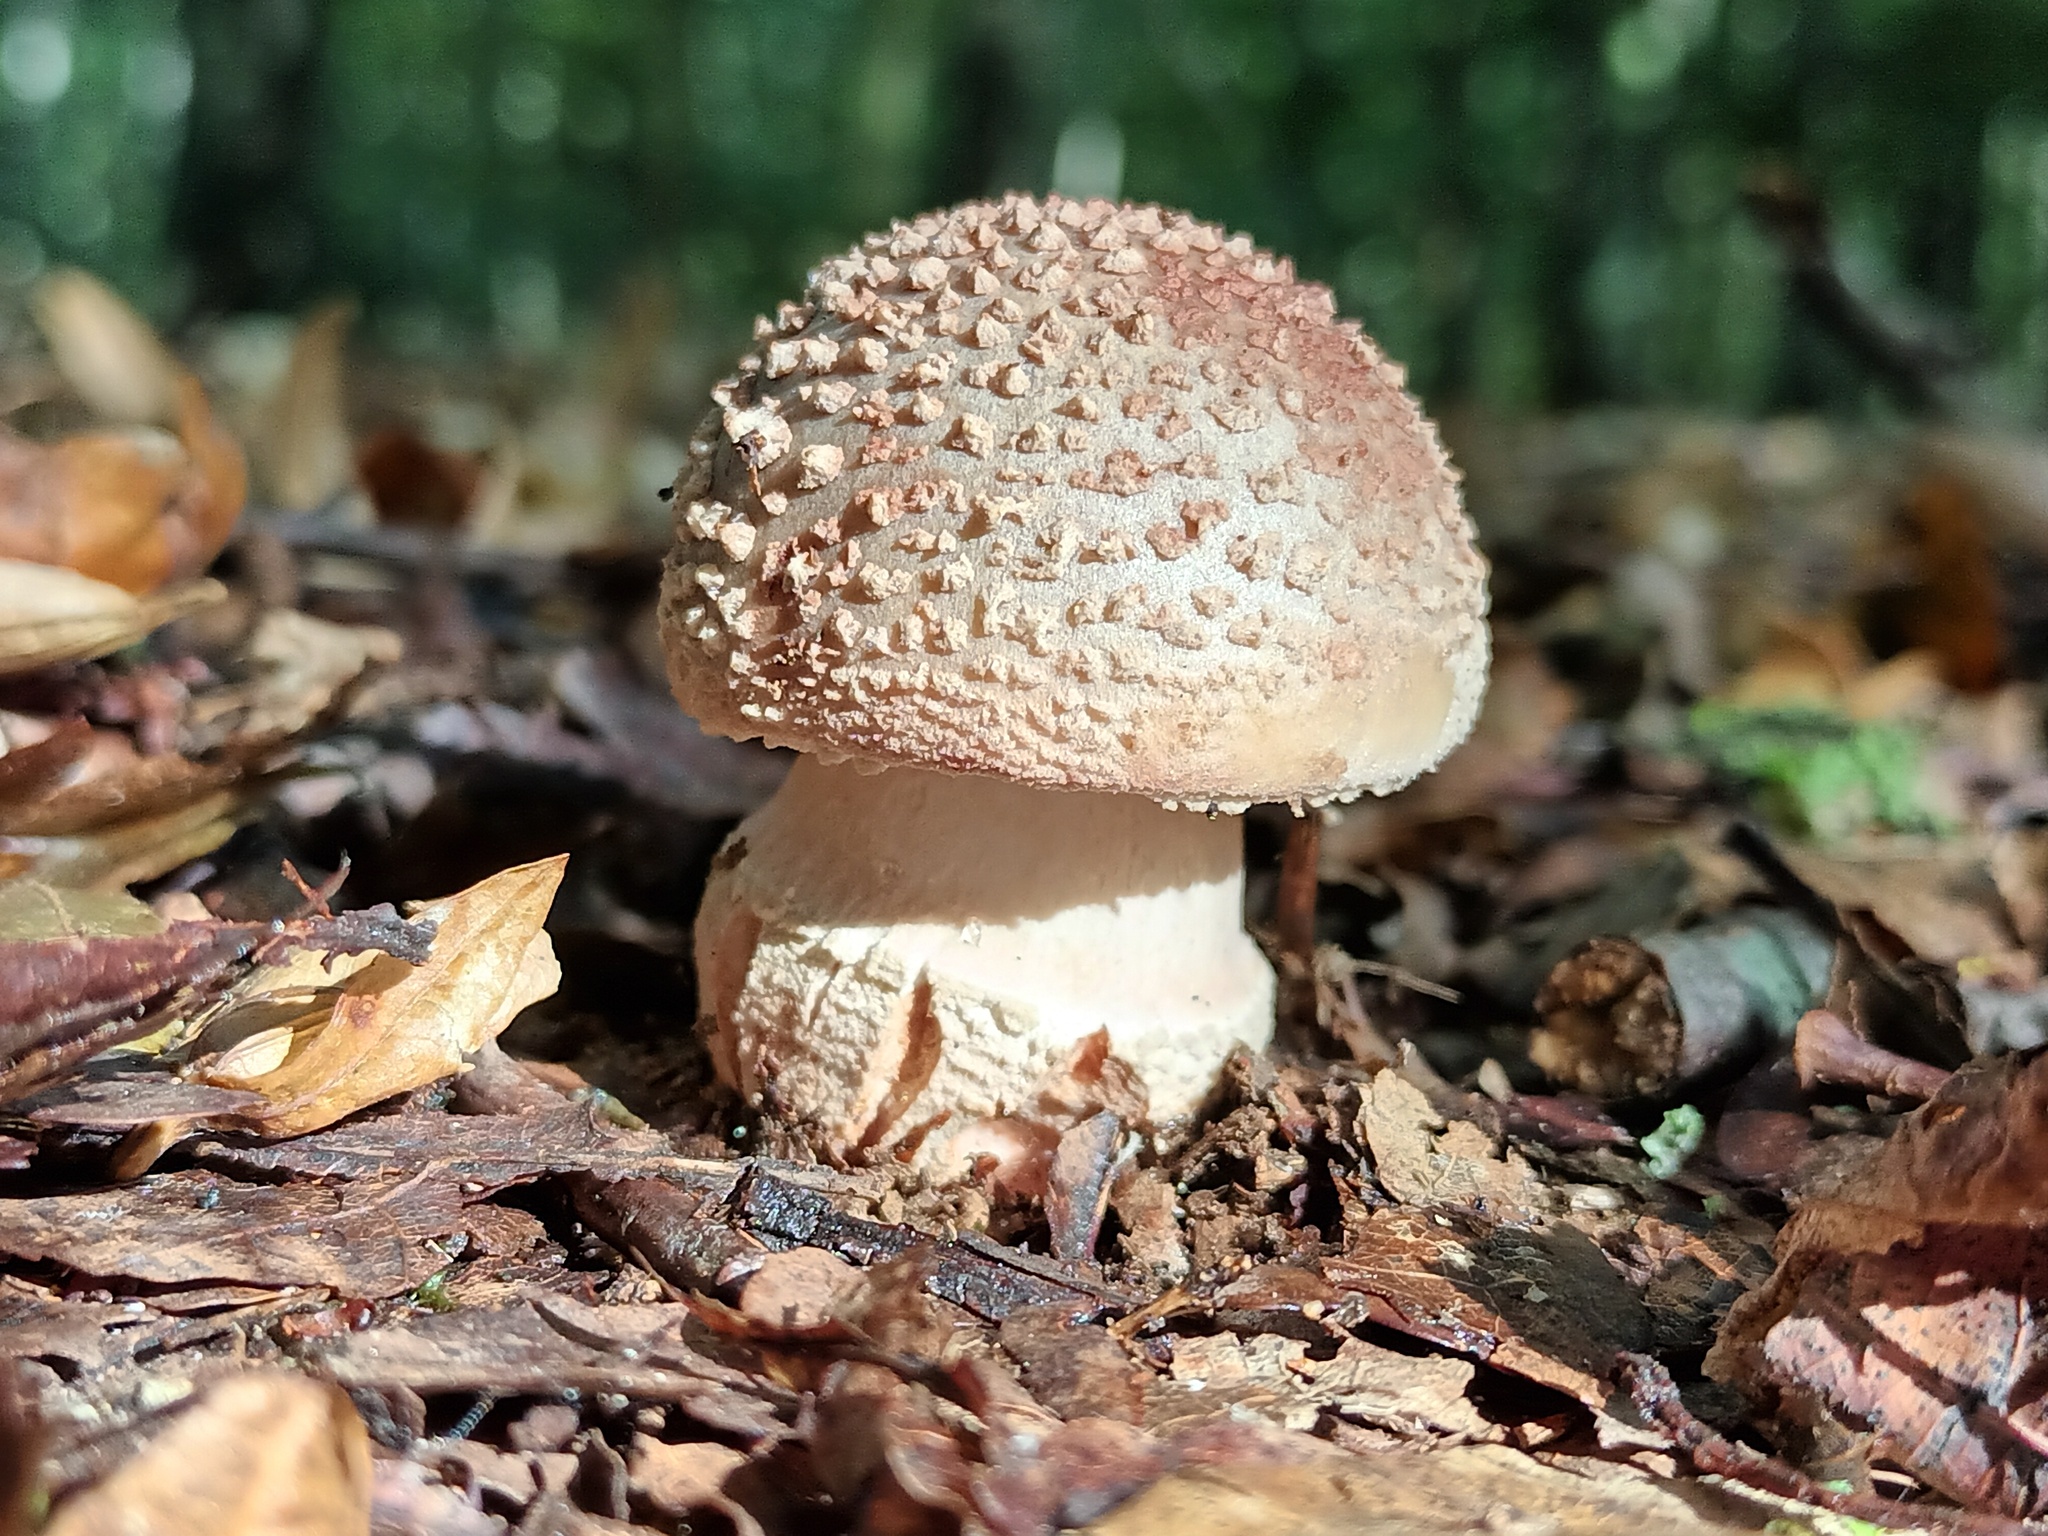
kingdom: Fungi
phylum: Basidiomycota
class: Agaricomycetes
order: Agaricales
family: Amanitaceae
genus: Amanita
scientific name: Amanita rubescens
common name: Blusher
